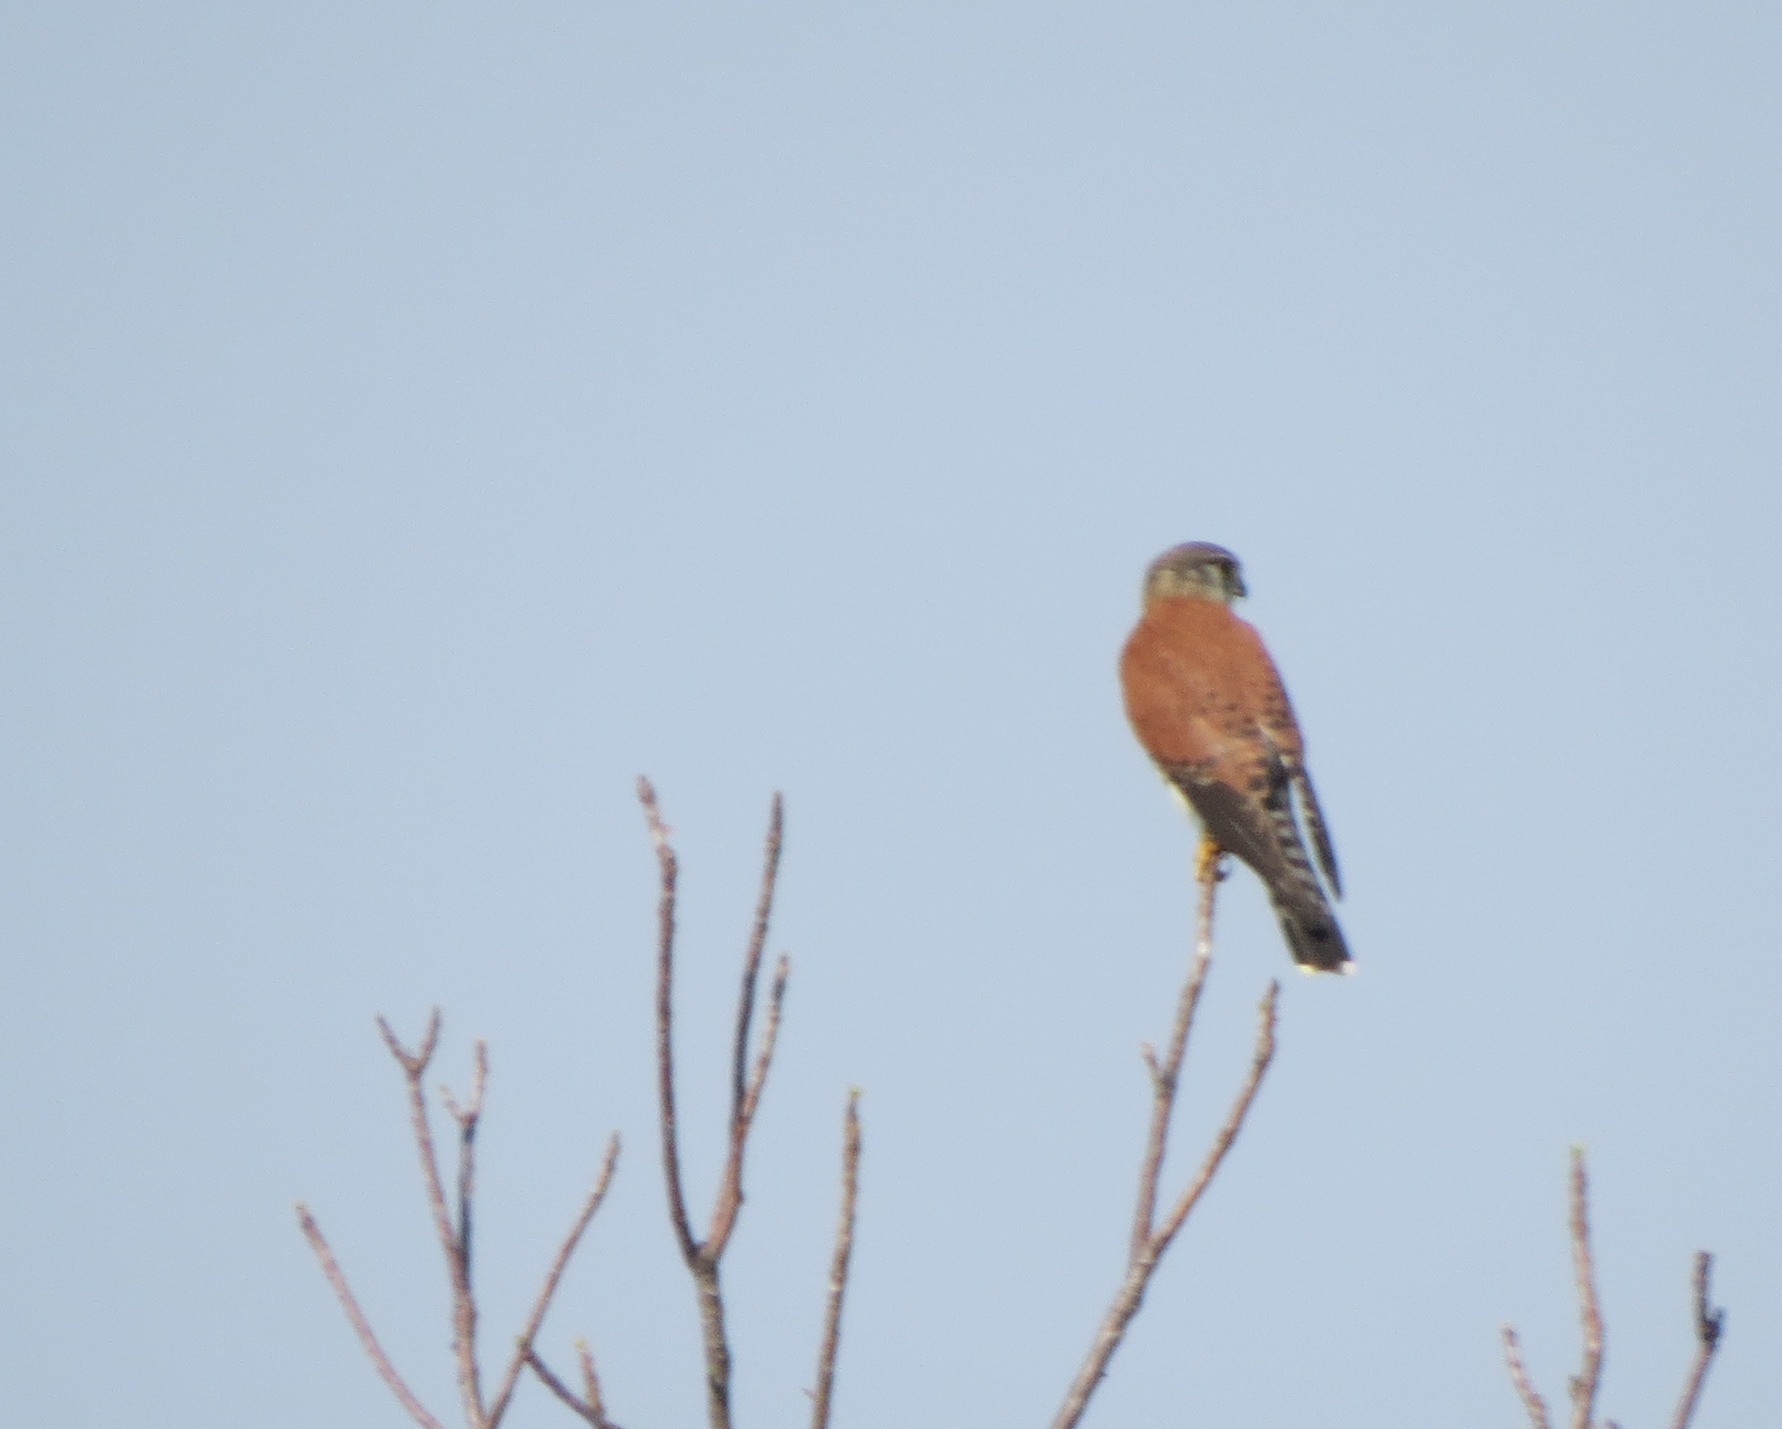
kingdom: Animalia
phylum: Chordata
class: Aves
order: Falconiformes
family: Falconidae
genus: Falco
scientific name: Falco newtoni
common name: Malagasy kestrel
